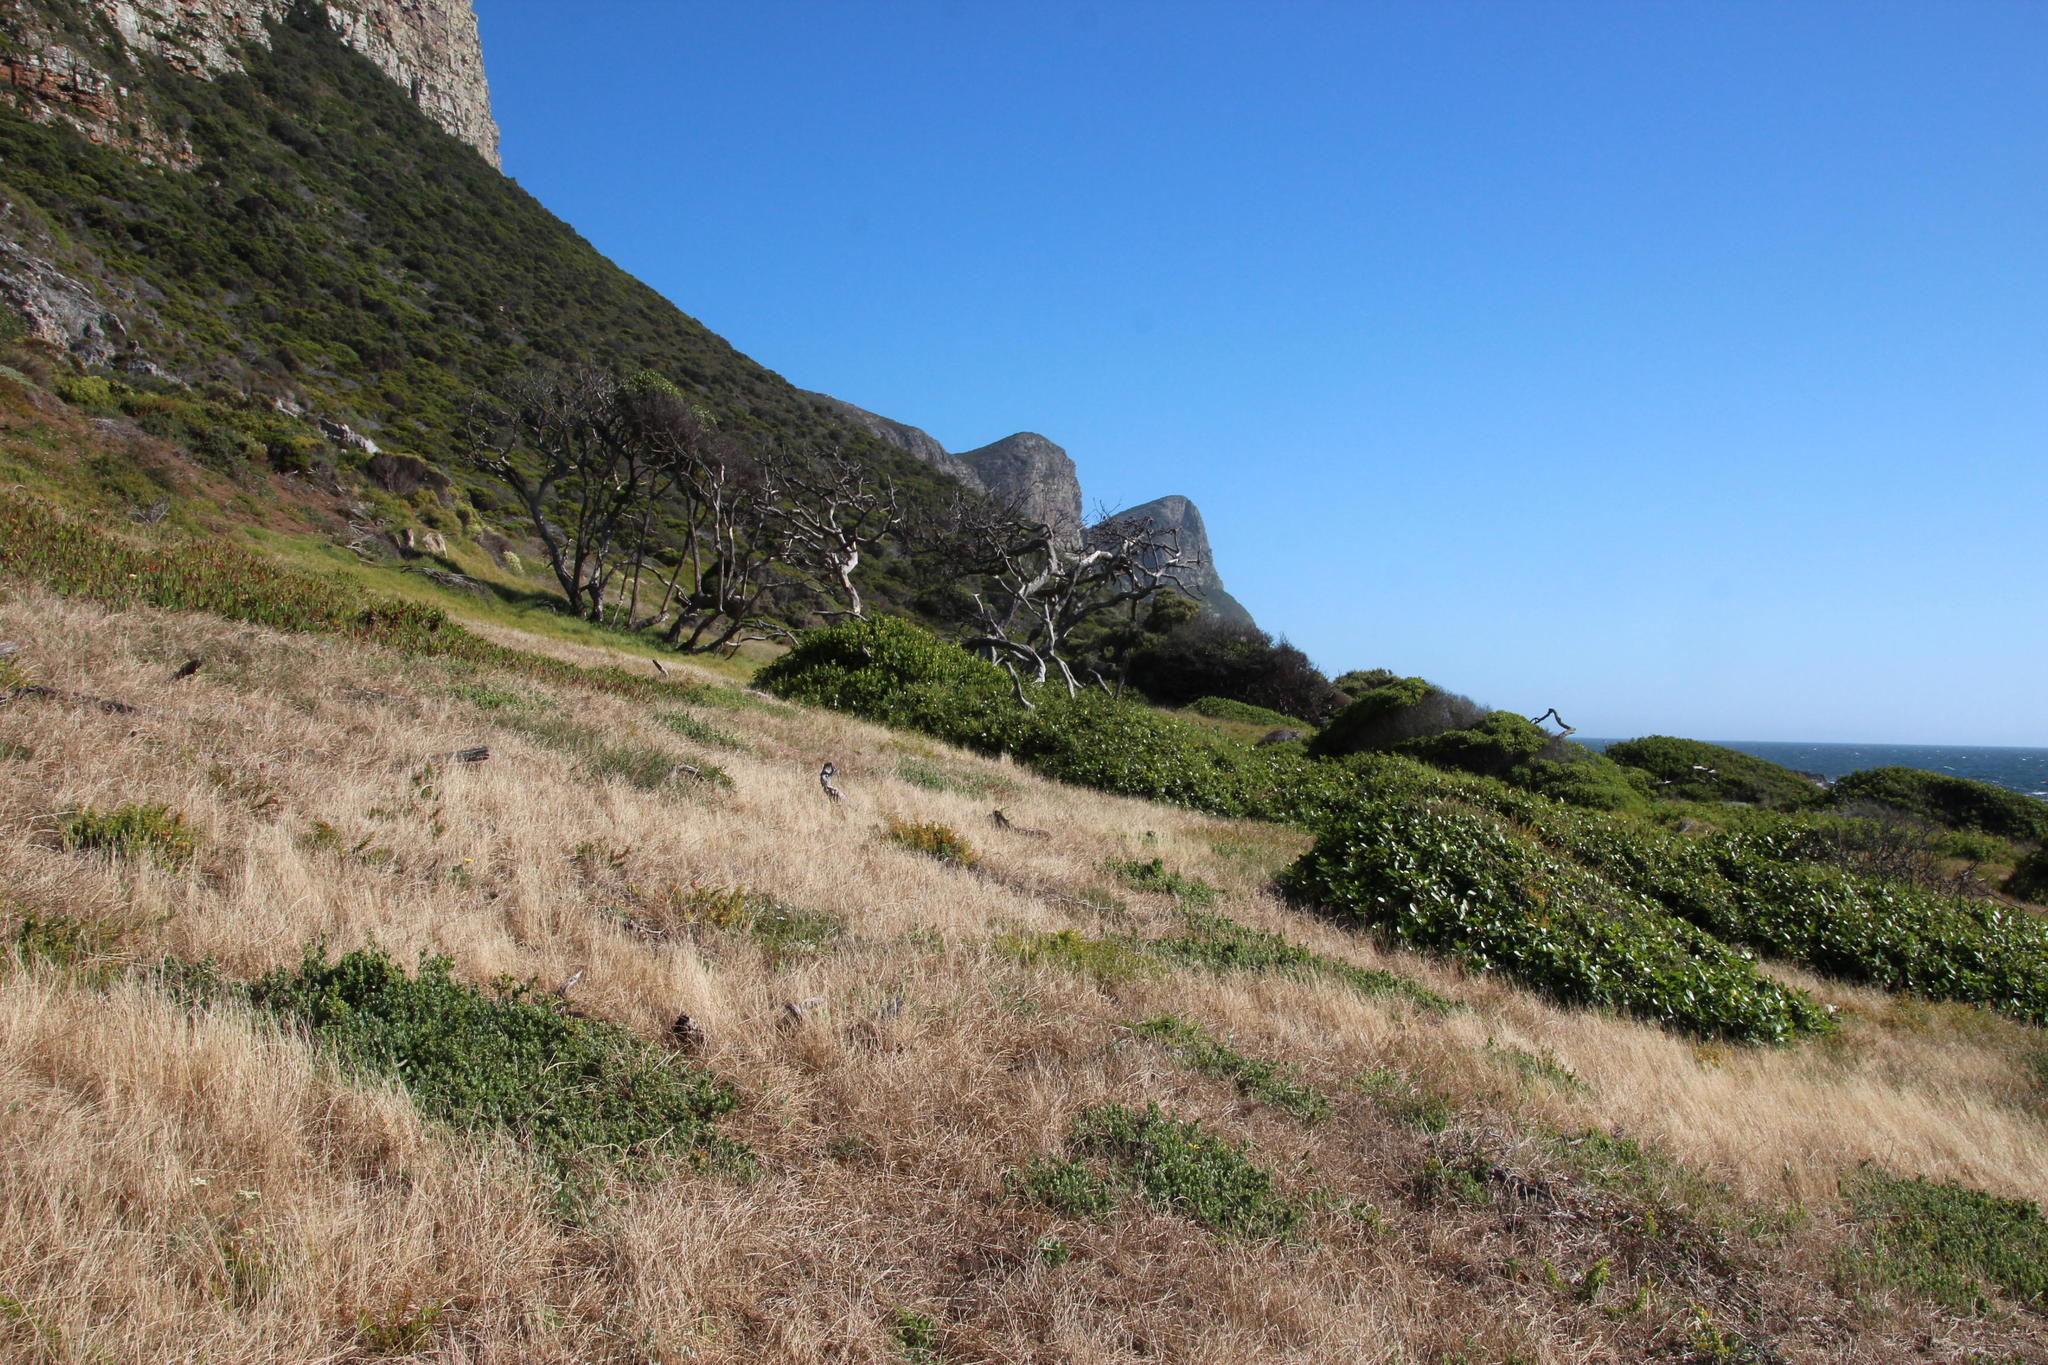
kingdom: Plantae
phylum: Tracheophyta
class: Magnoliopsida
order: Ericales
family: Sapotaceae
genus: Sideroxylon
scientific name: Sideroxylon inerme
